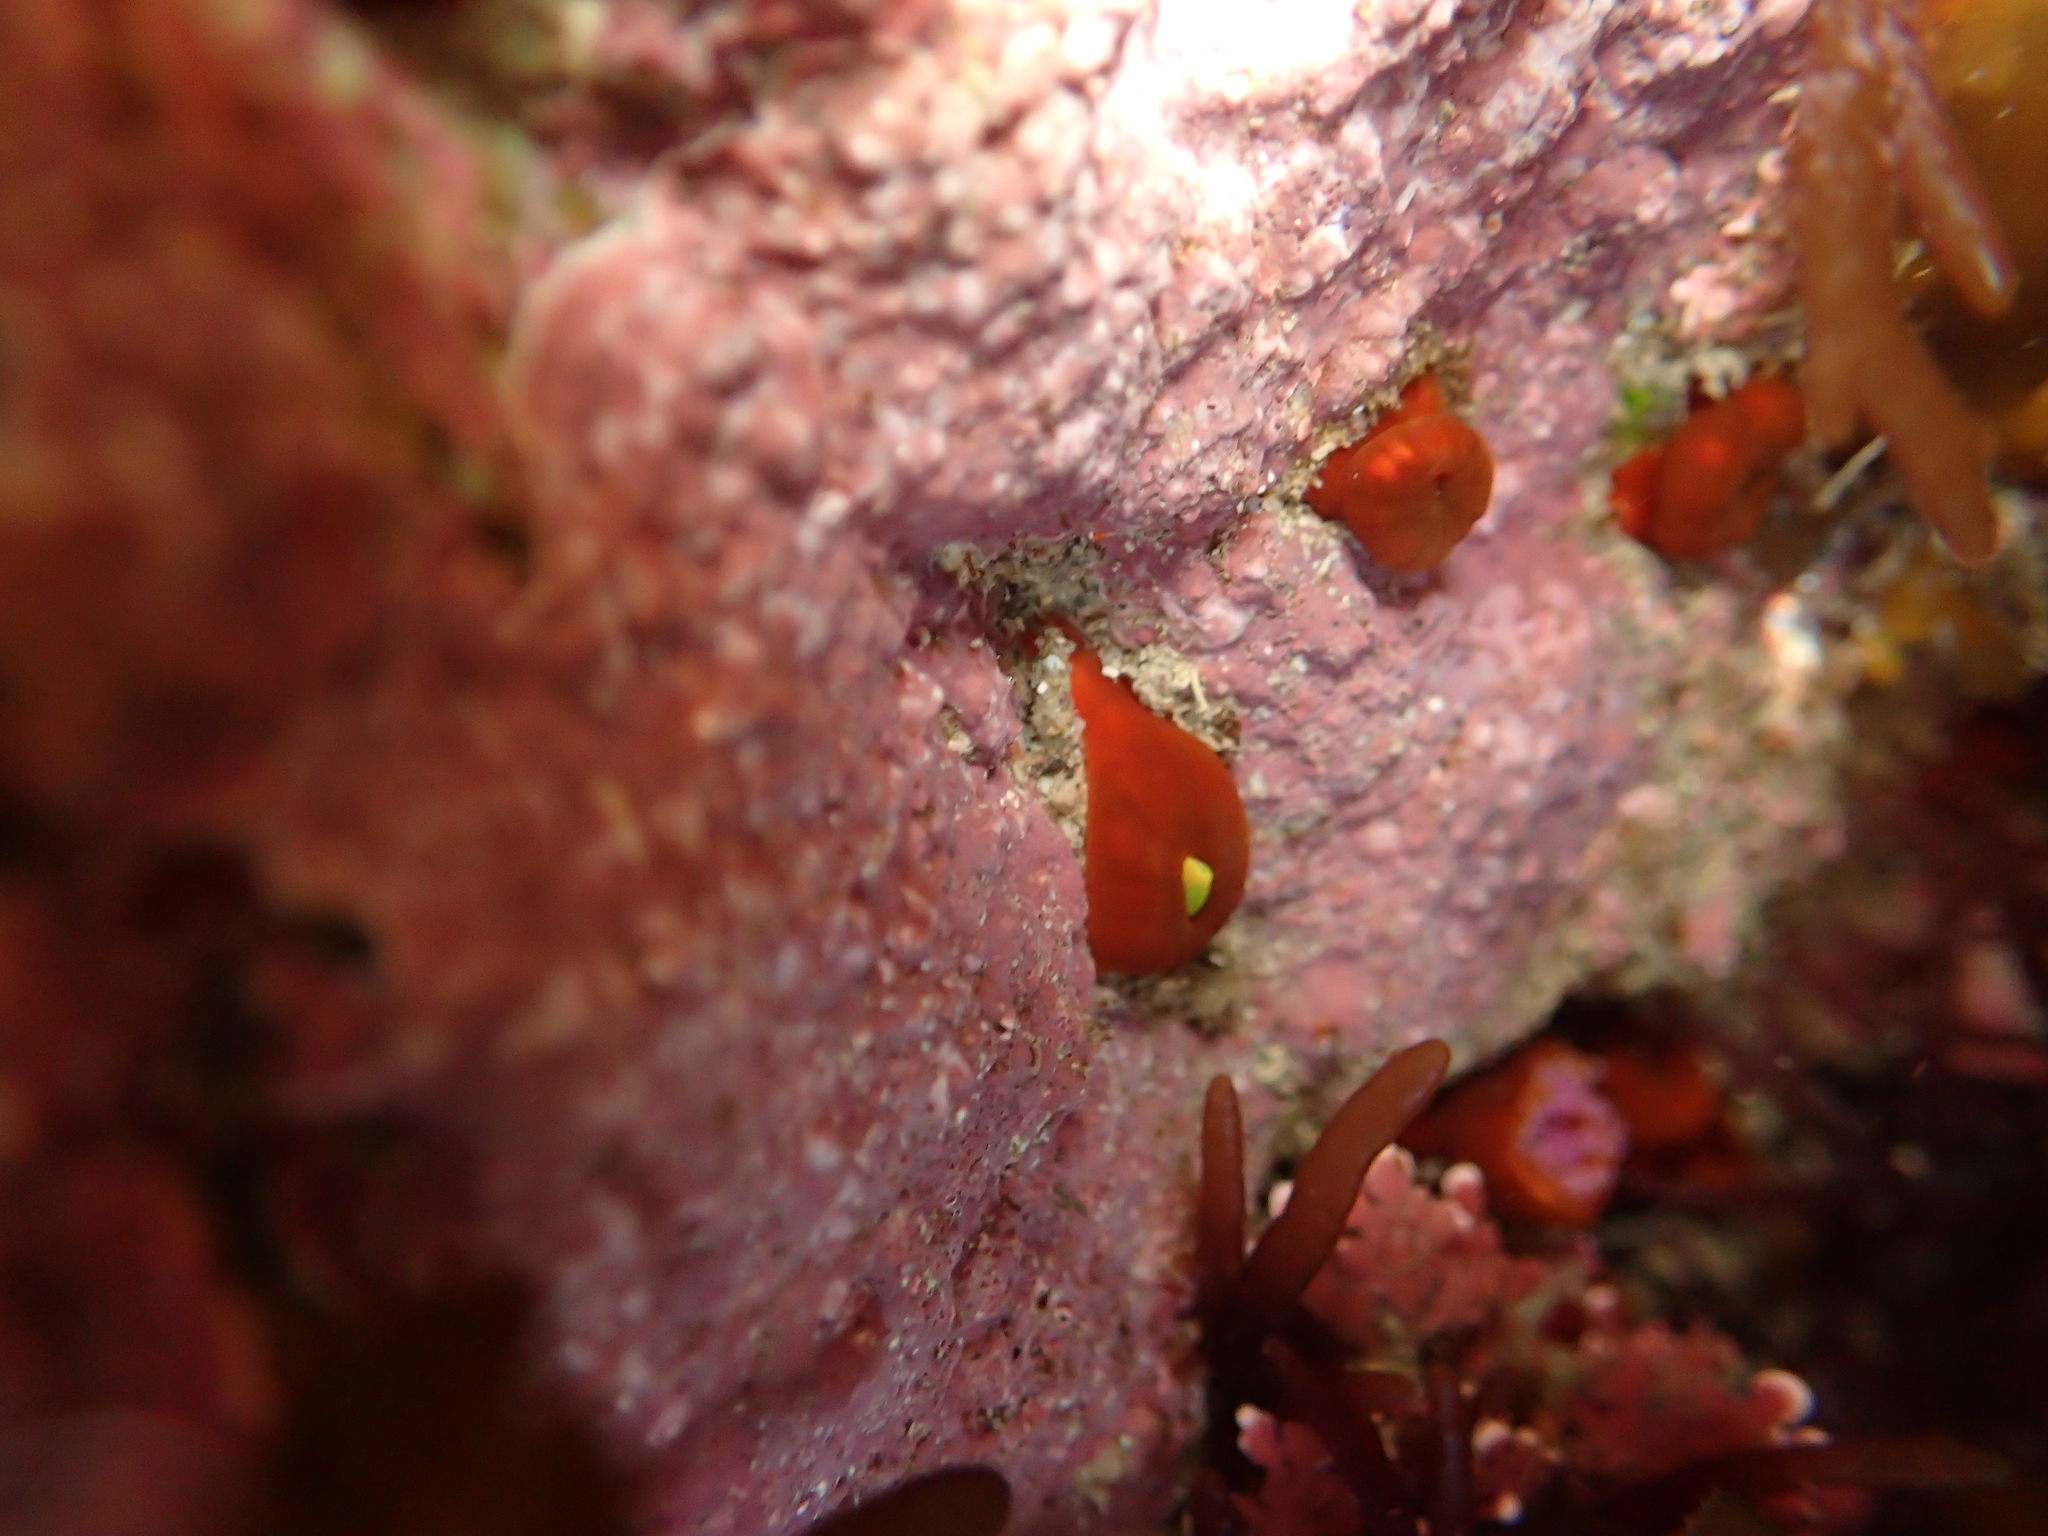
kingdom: Animalia
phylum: Cnidaria
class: Anthozoa
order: Corallimorpharia
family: Corallimorphidae
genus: Corynactis
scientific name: Corynactis australis
